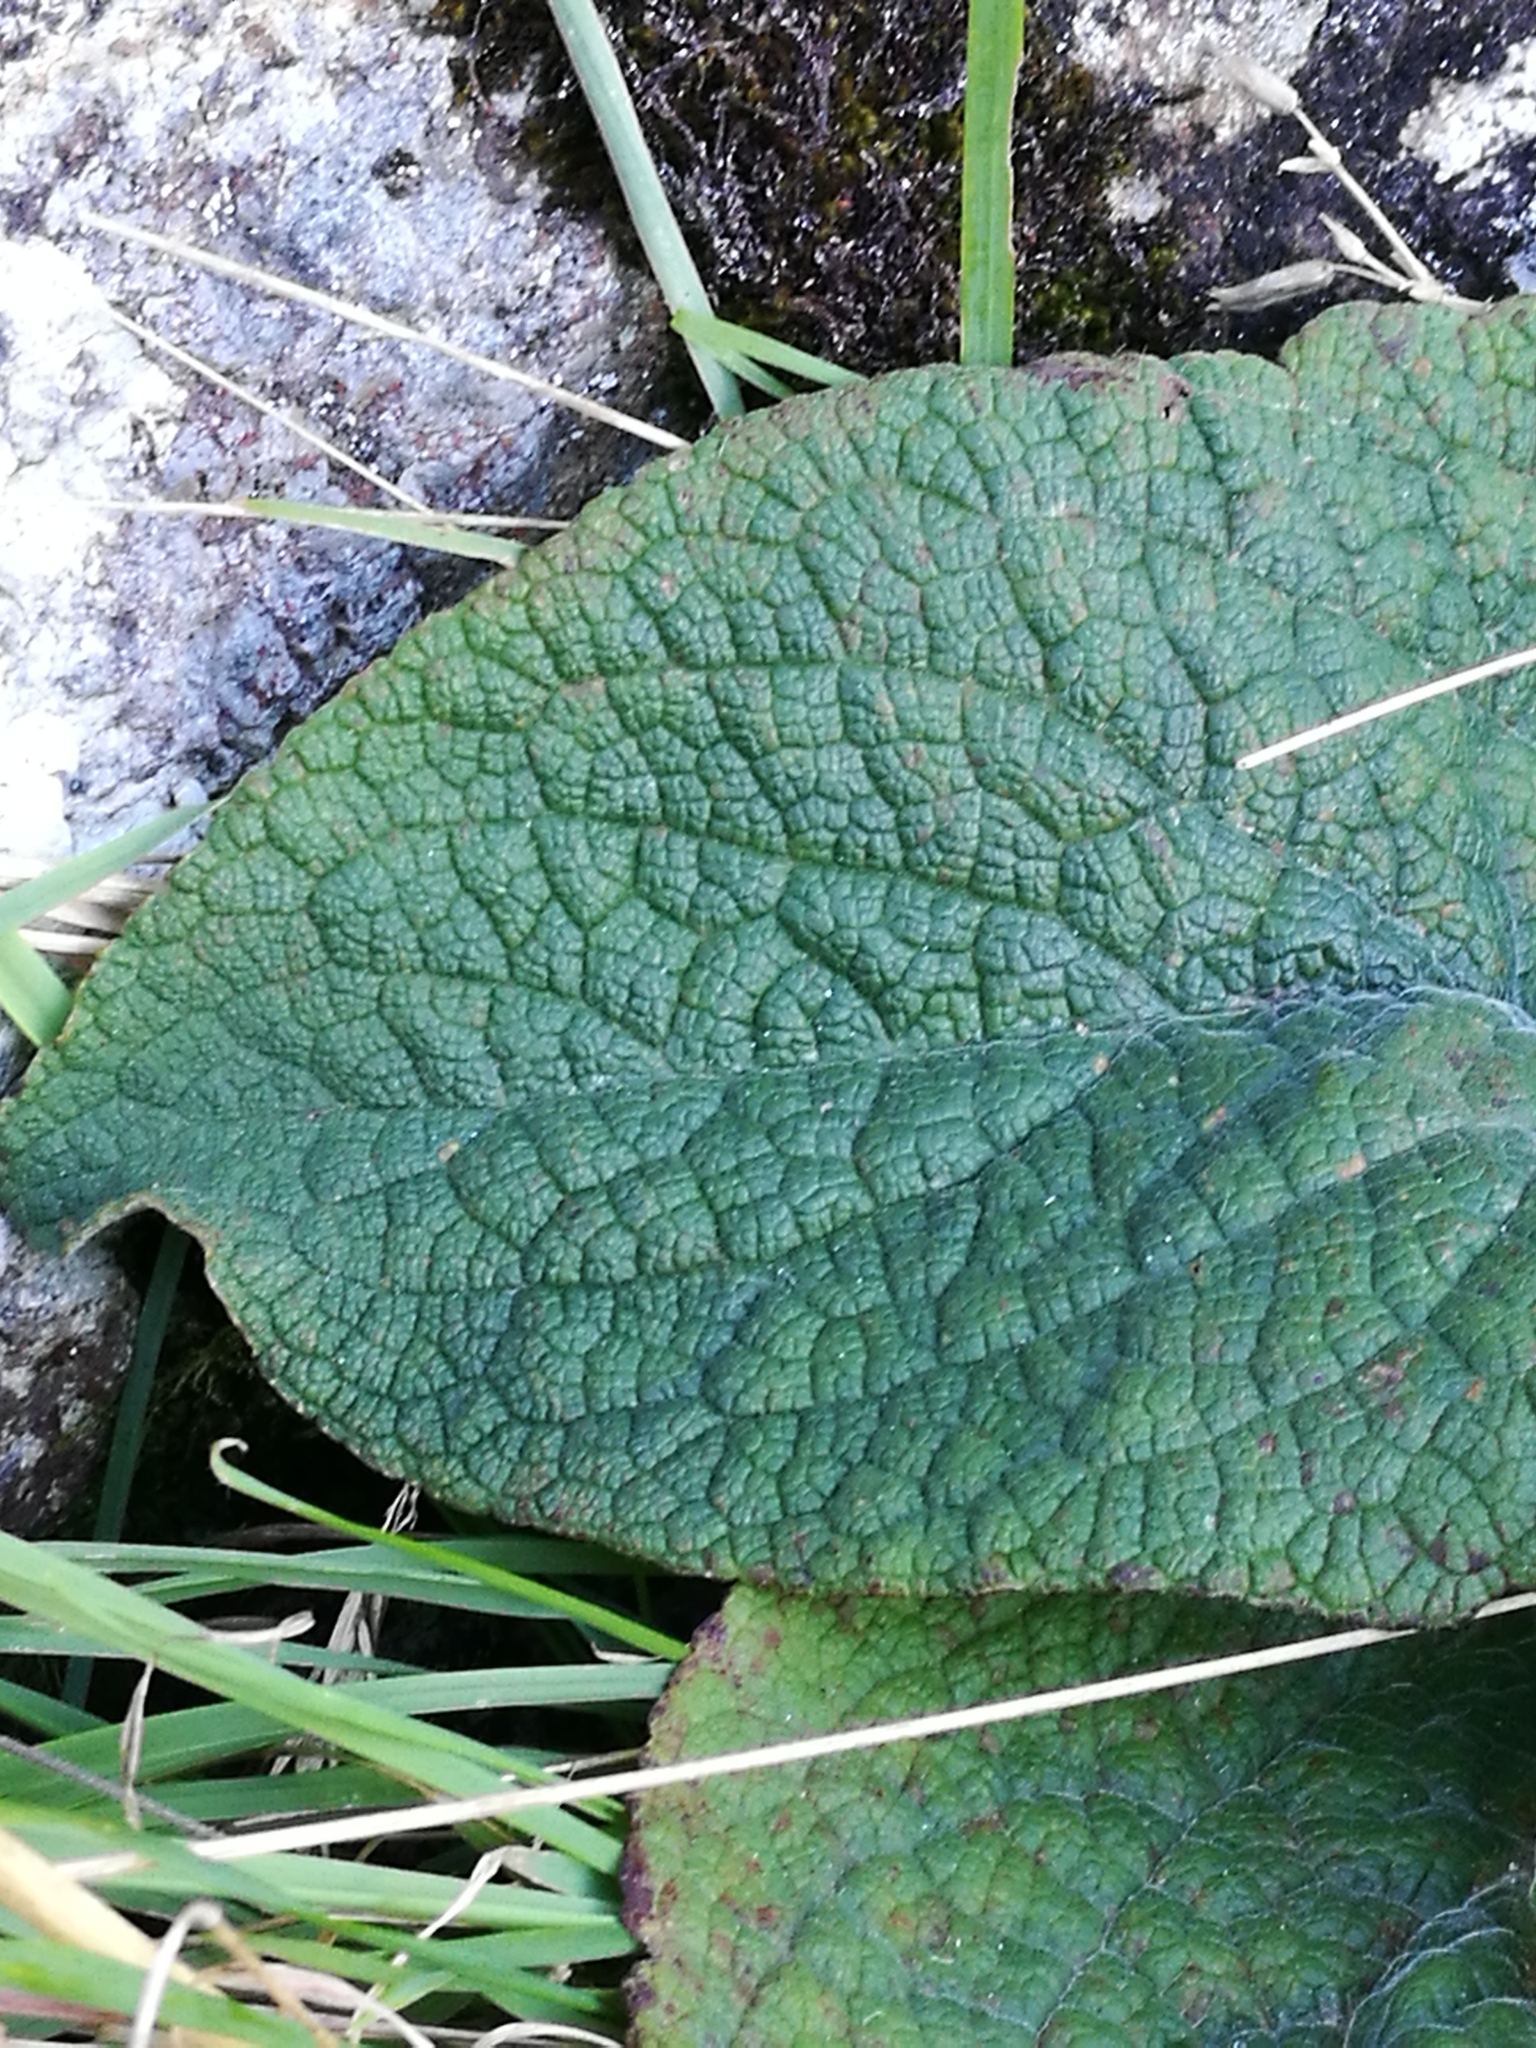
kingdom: Plantae
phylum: Tracheophyta
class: Magnoliopsida
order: Lamiales
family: Plantaginaceae
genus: Digitalis
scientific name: Digitalis purpurea
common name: Foxglove
